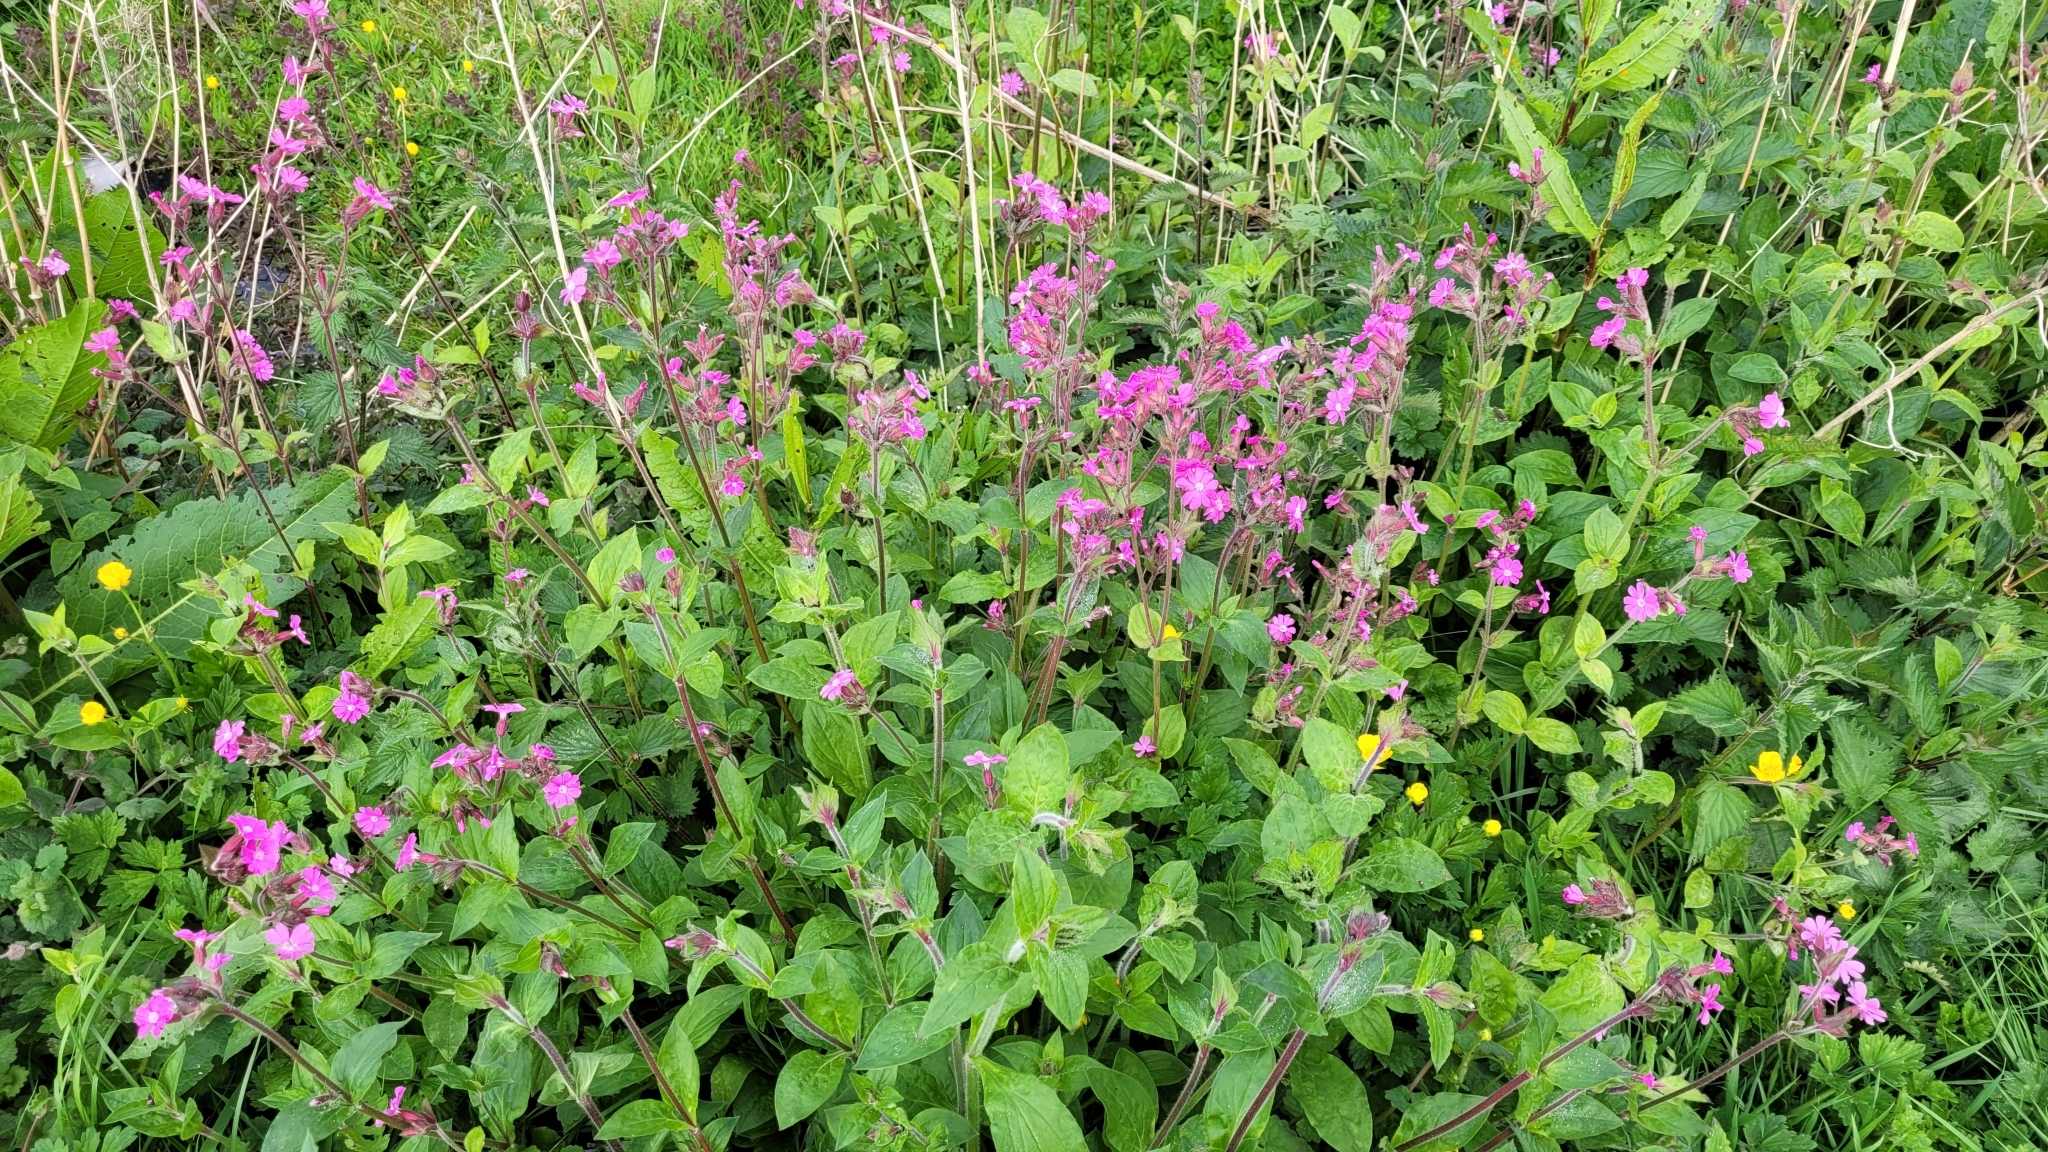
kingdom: Plantae
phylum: Tracheophyta
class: Magnoliopsida
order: Caryophyllales
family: Caryophyllaceae
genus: Silene
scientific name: Silene dioica
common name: Red campion
